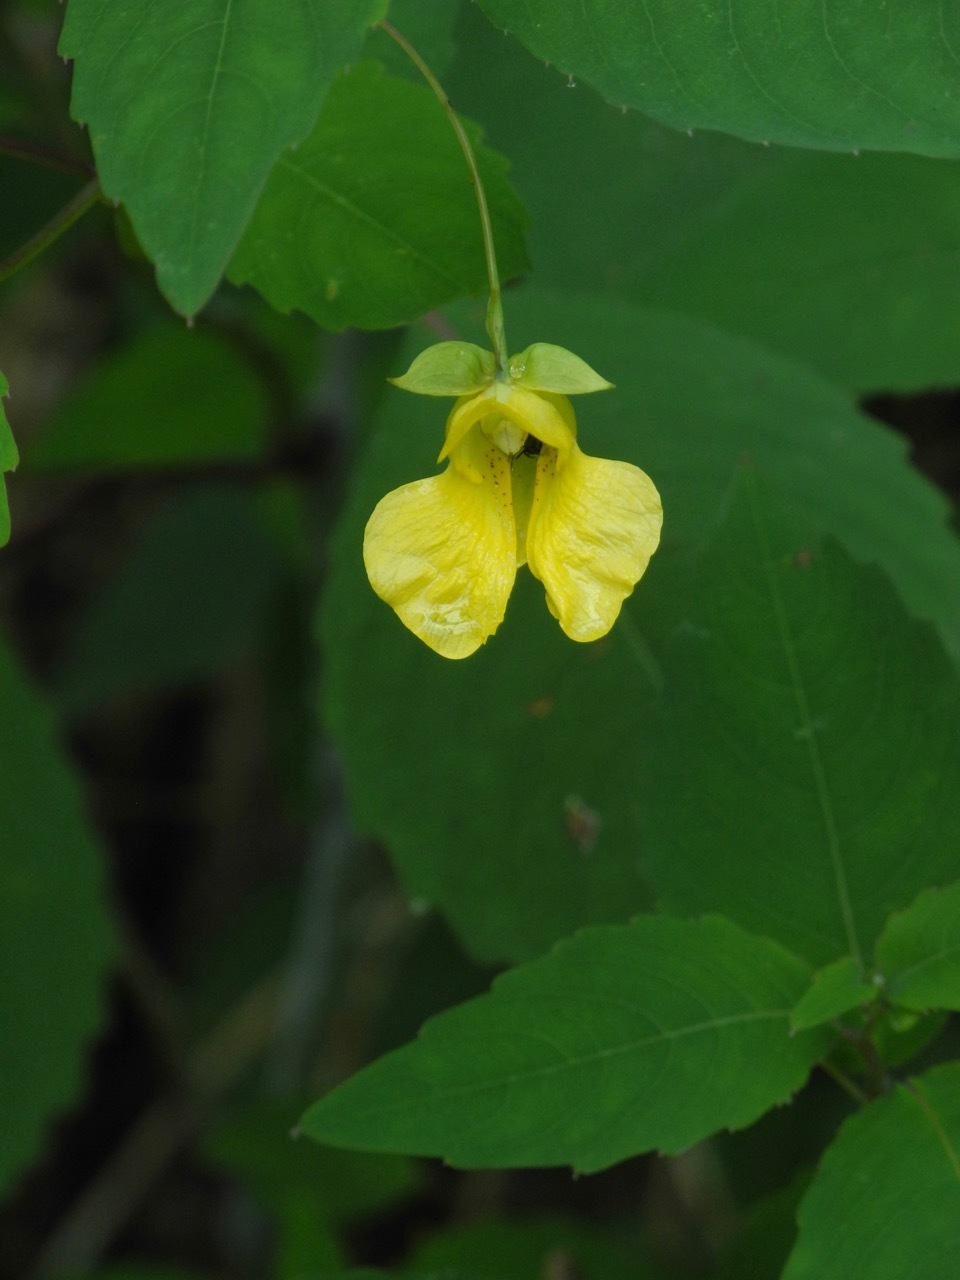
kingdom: Plantae
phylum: Tracheophyta
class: Magnoliopsida
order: Ericales
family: Balsaminaceae
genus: Impatiens
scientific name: Impatiens pallida
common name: Pale snapweed
